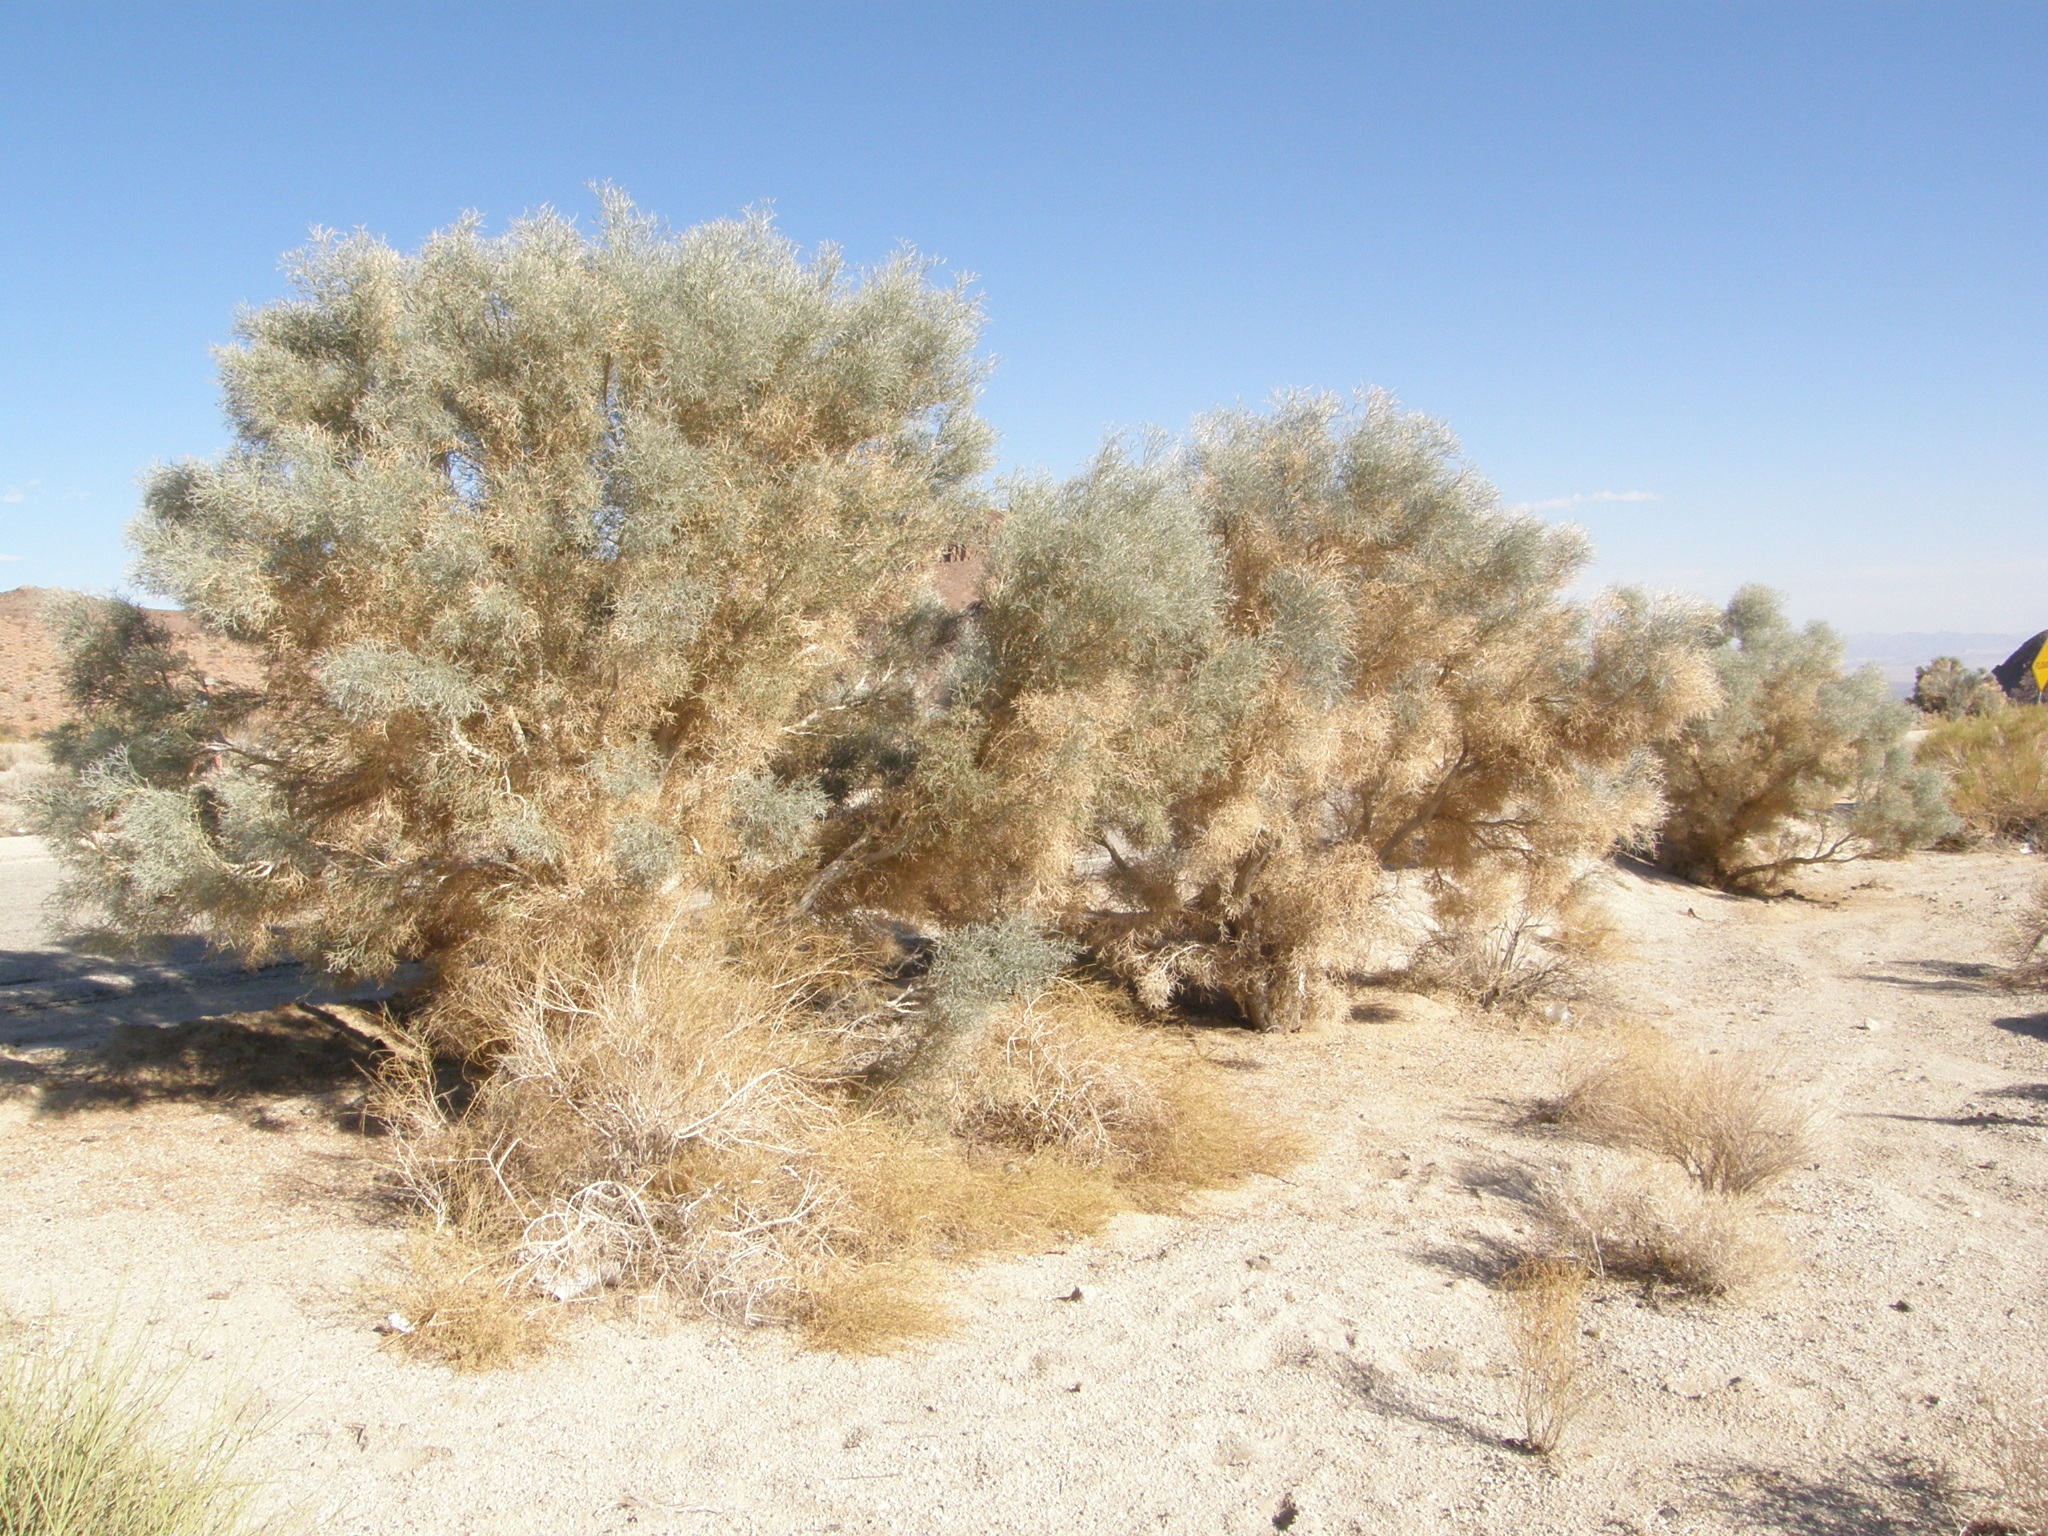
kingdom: Plantae
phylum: Tracheophyta
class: Magnoliopsida
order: Fabales
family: Fabaceae
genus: Psorothamnus
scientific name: Psorothamnus spinosus
